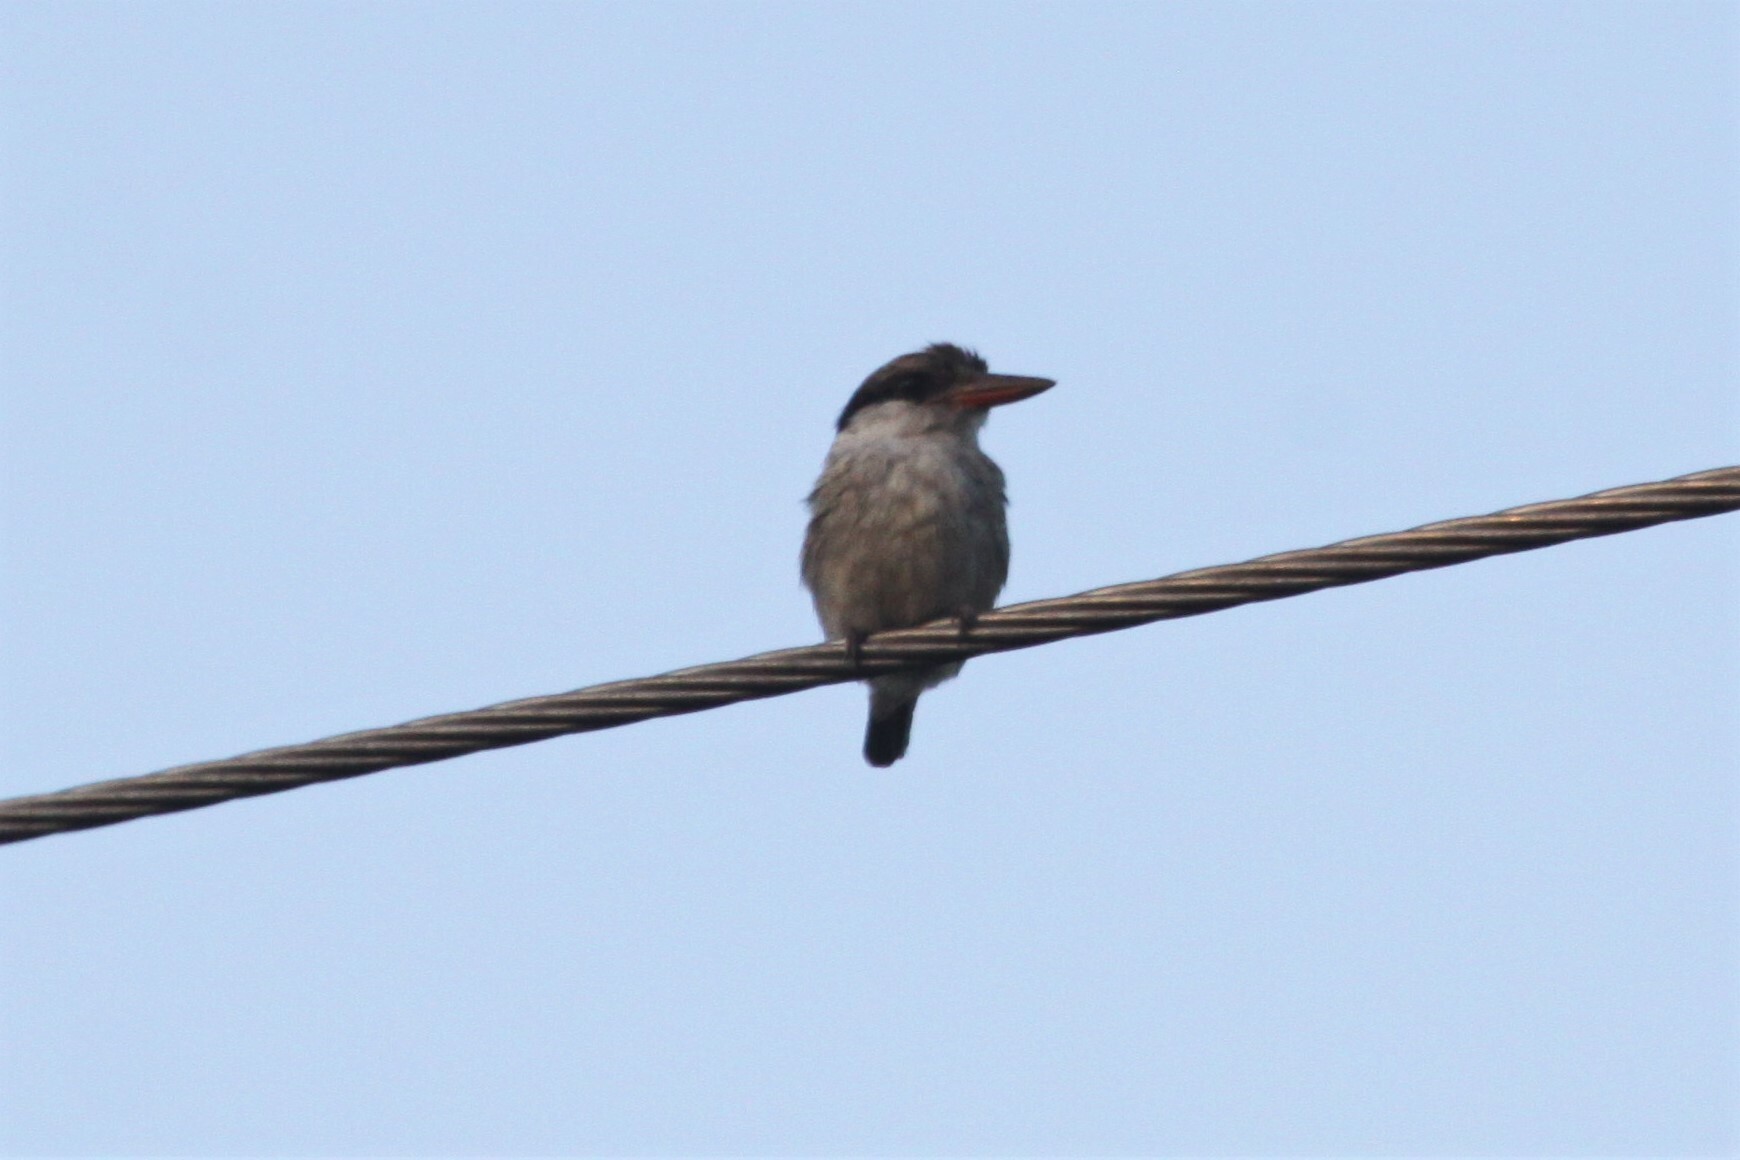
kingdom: Animalia
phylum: Chordata
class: Aves
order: Coraciiformes
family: Alcedinidae
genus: Halcyon
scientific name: Halcyon chelicuti
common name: Striped kingfisher
